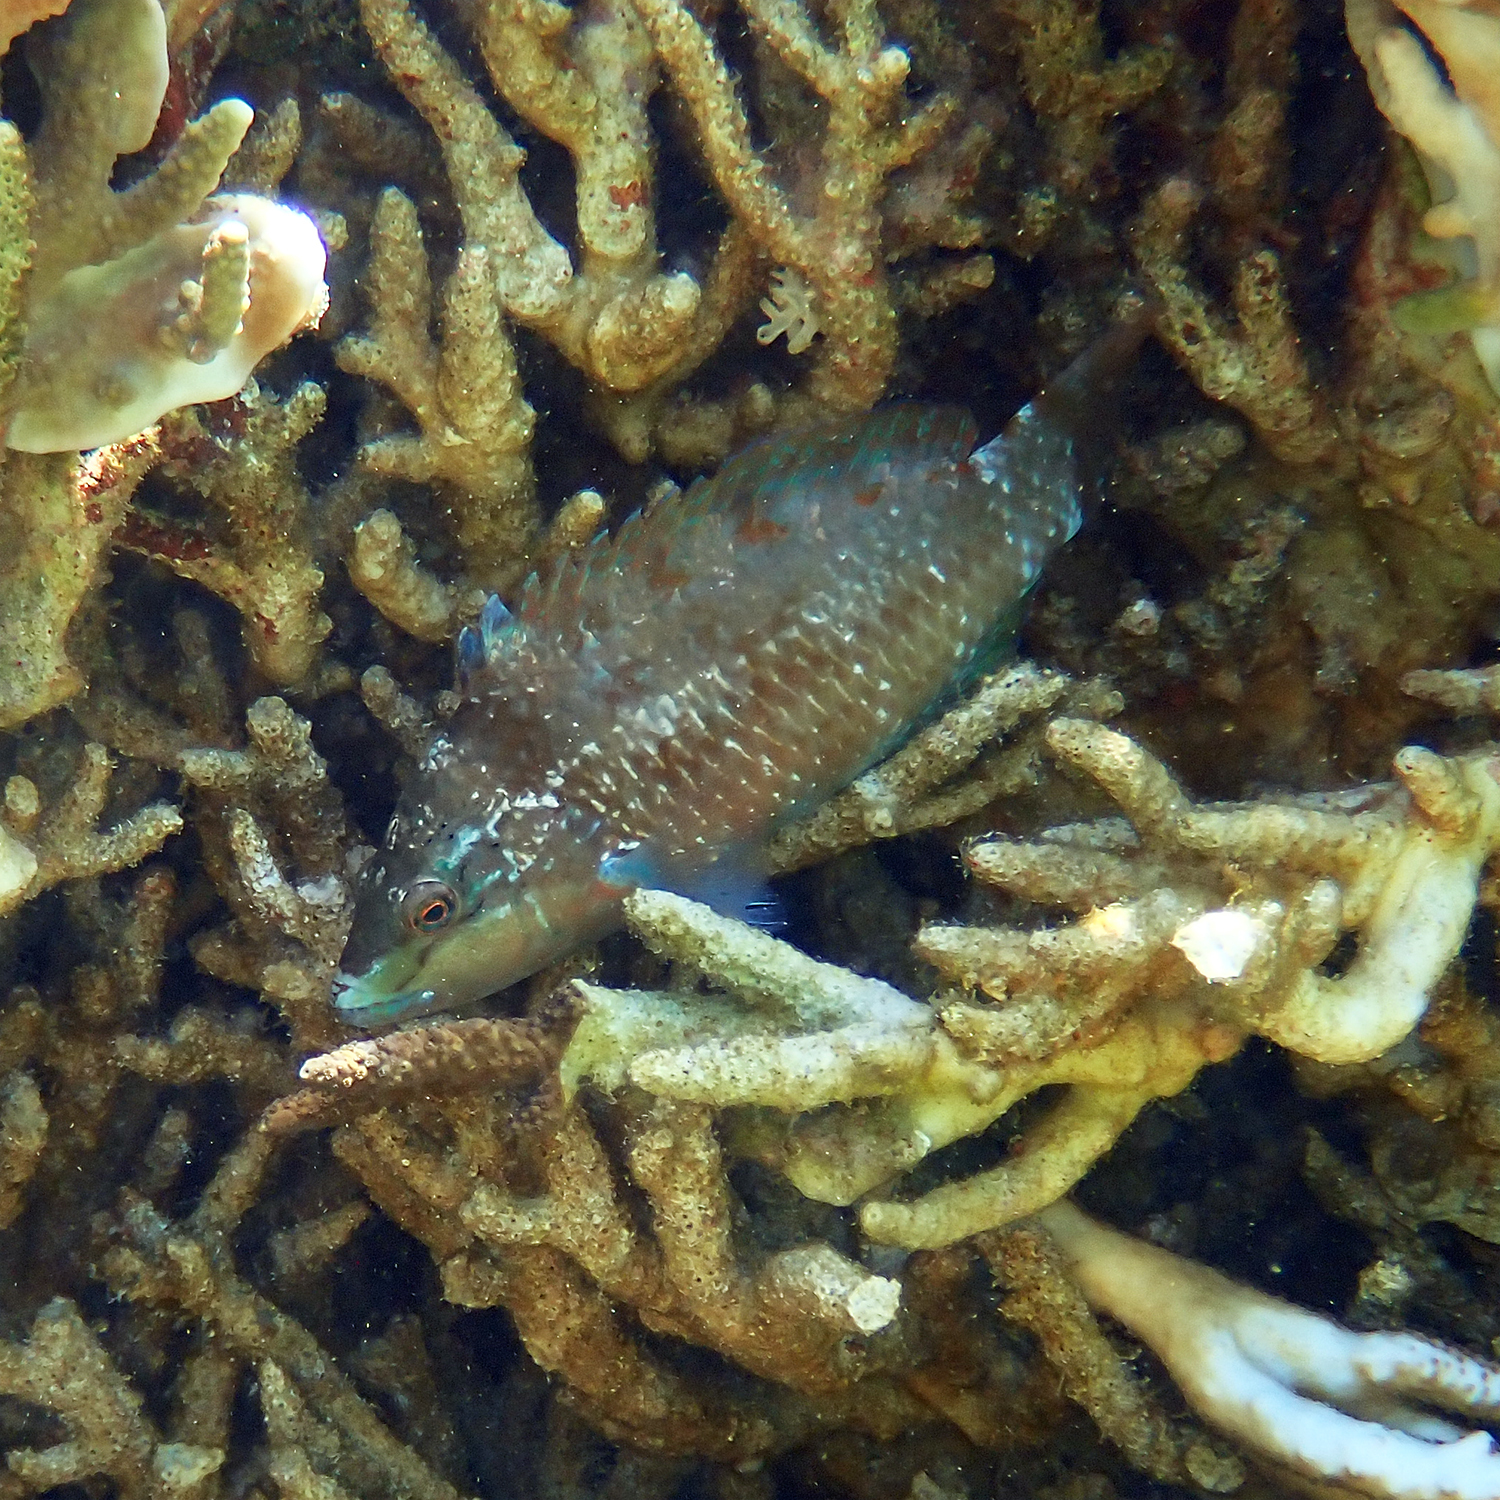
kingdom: Animalia
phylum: Chordata
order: Perciformes
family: Labridae
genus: Pseudolabrus
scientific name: Pseudolabrus luculentus
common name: Luculentus wrasse
